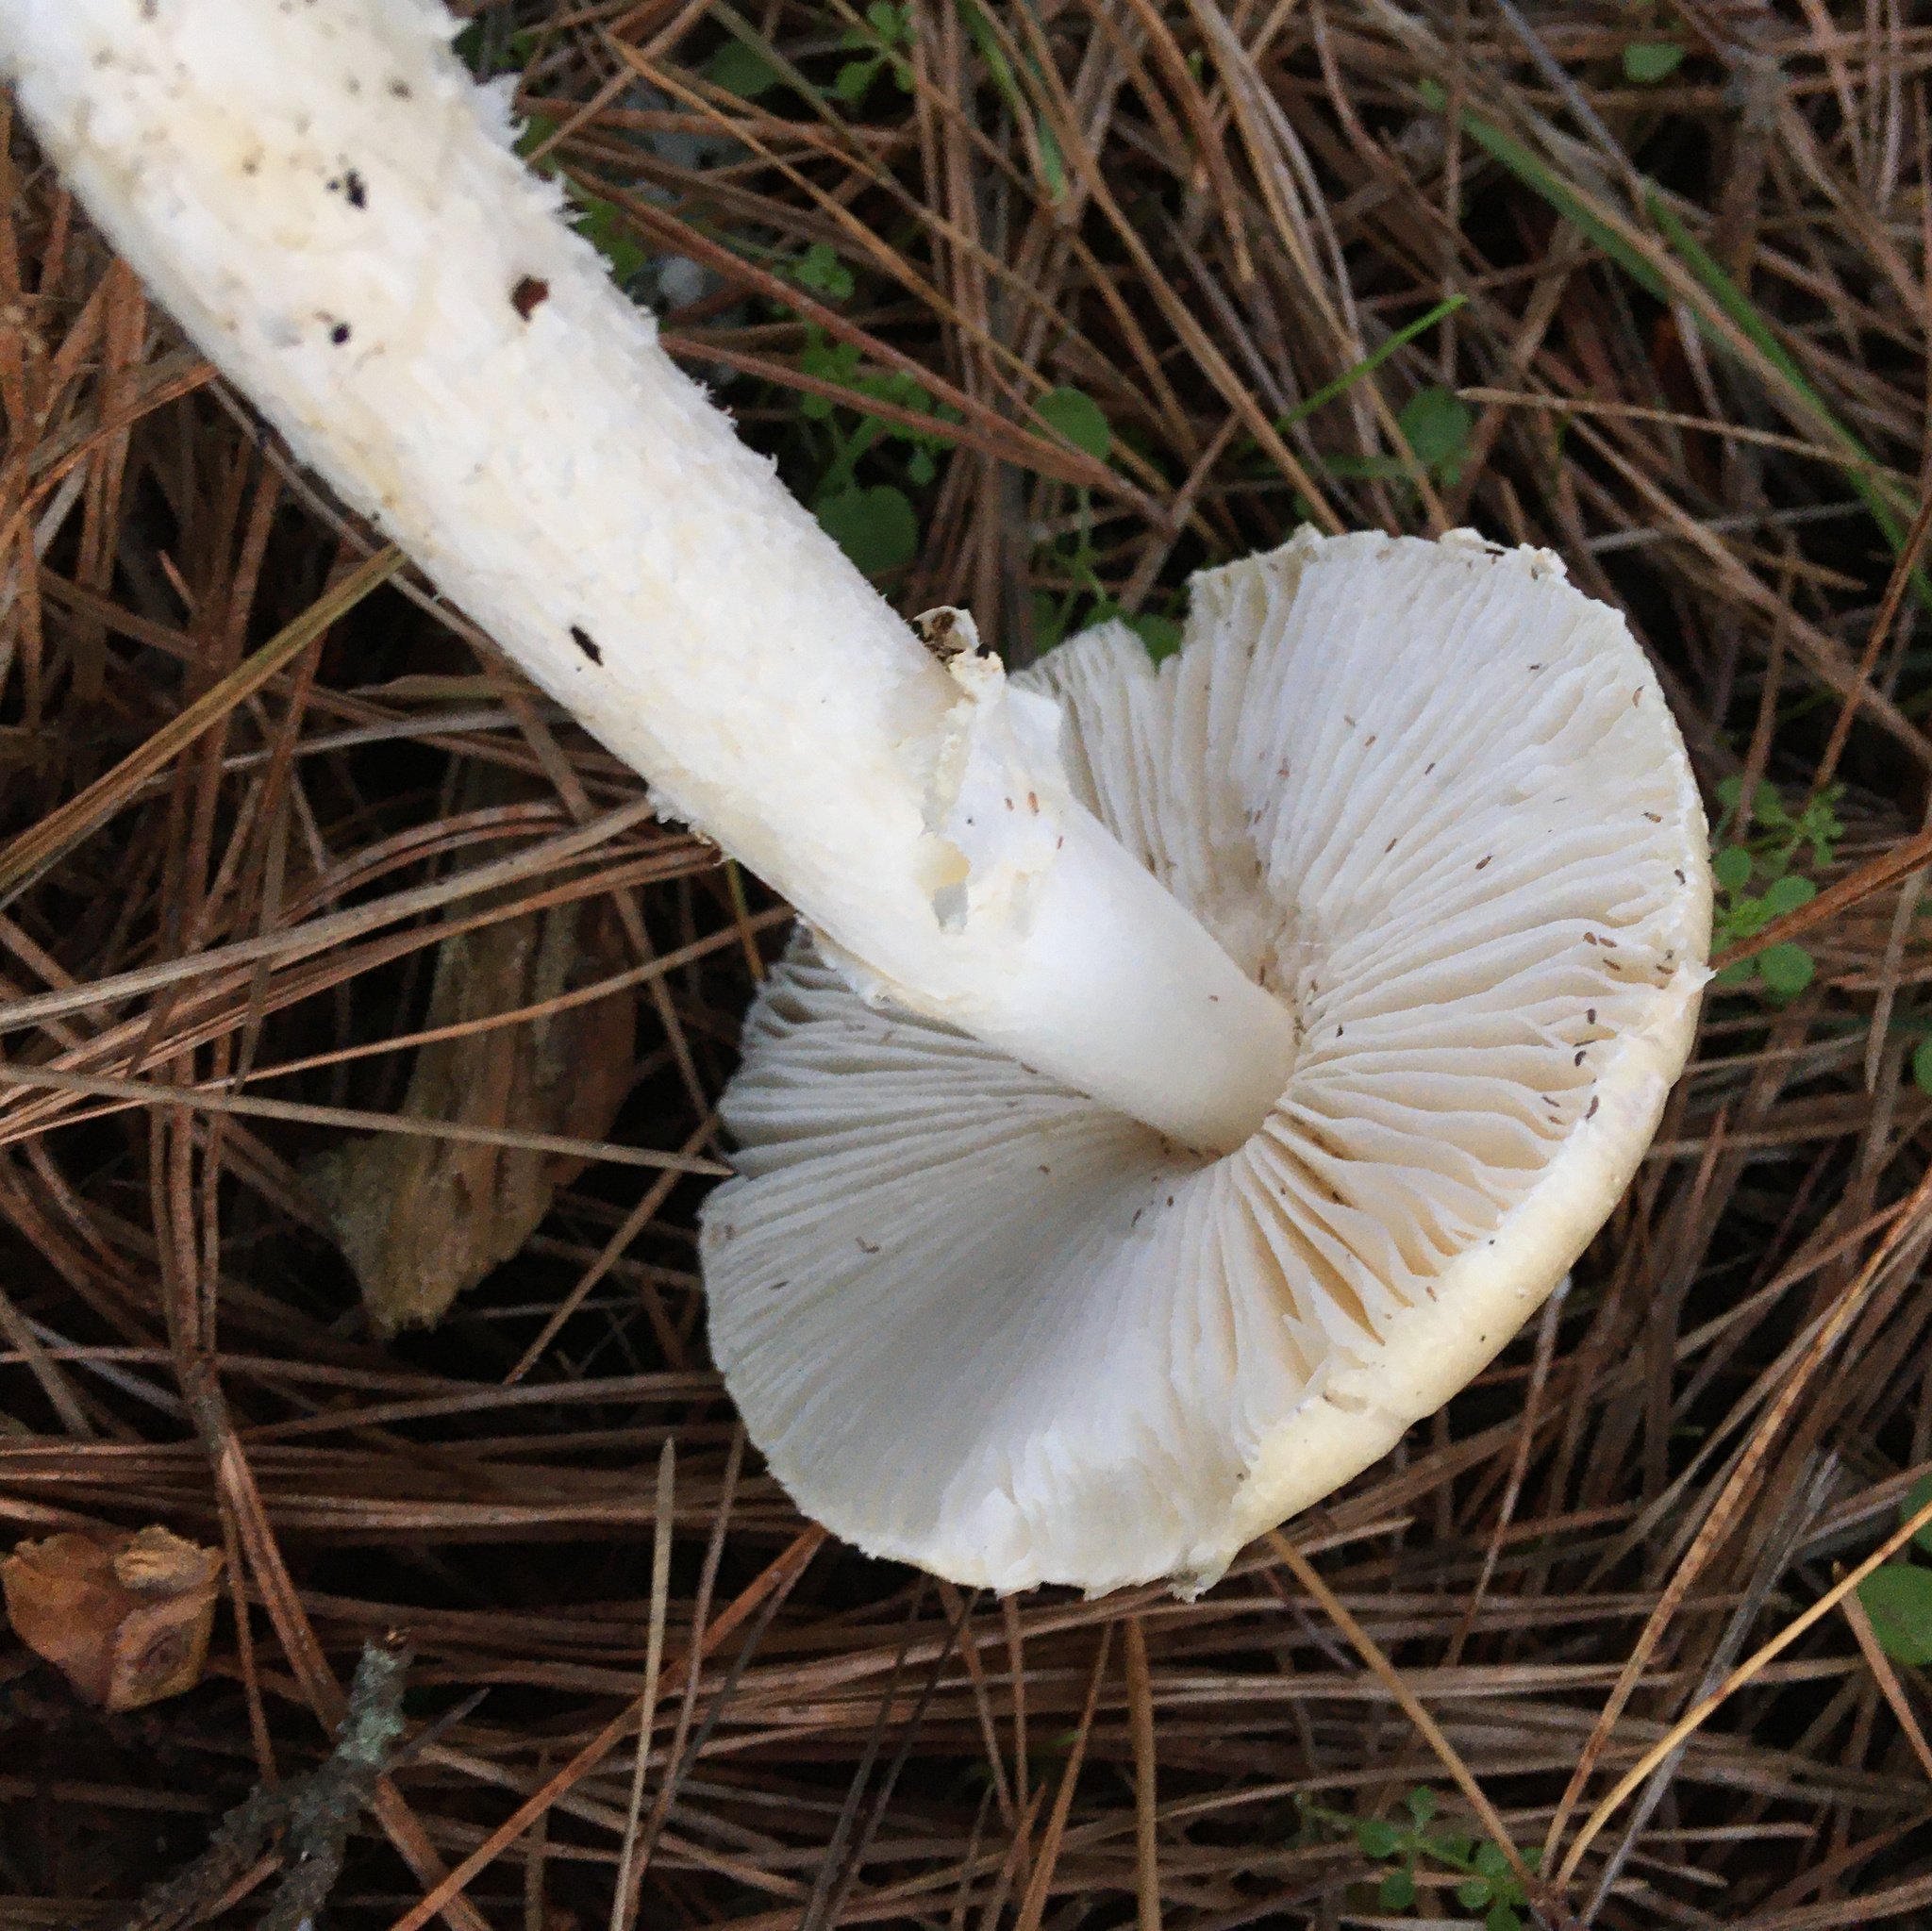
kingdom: Fungi
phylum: Basidiomycota
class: Agaricomycetes
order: Agaricales
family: Amanitaceae
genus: Amanita
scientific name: Amanita ocreata
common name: Western destroying angel
